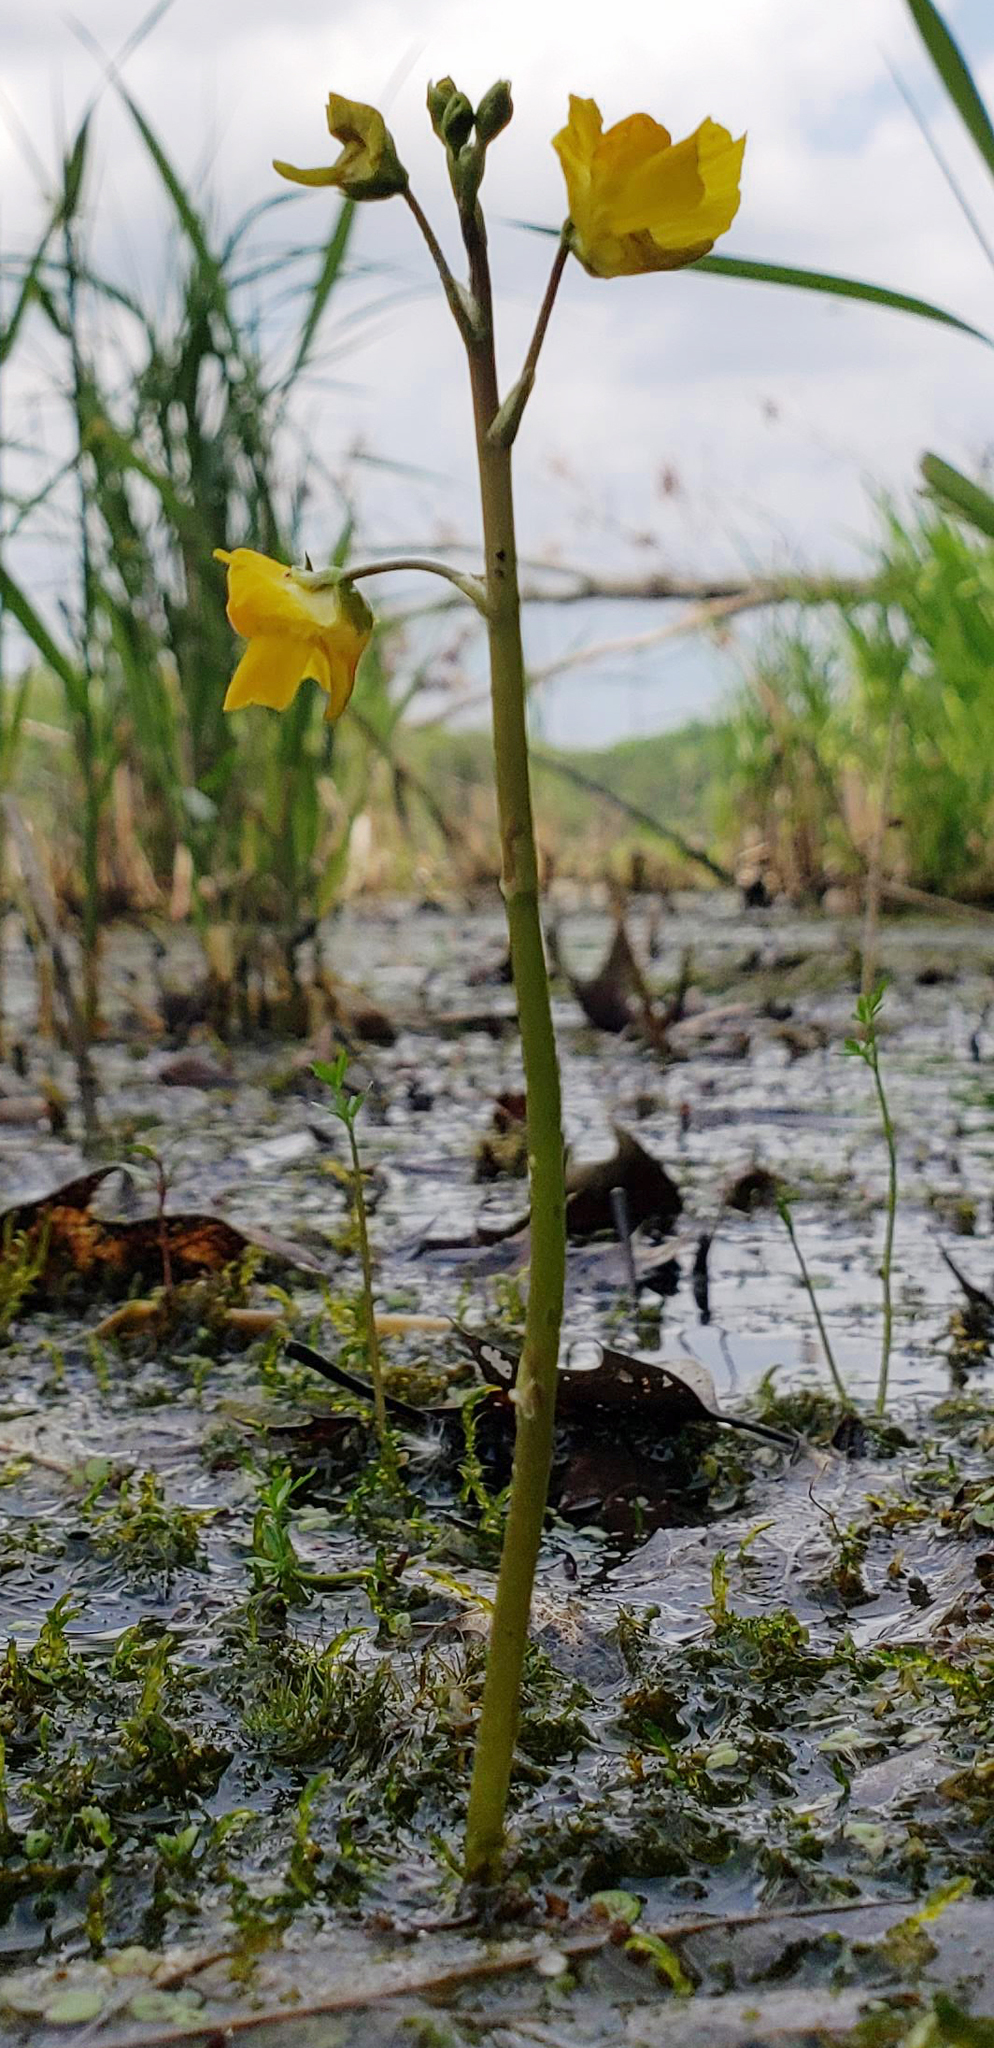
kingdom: Plantae
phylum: Tracheophyta
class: Magnoliopsida
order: Lamiales
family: Lentibulariaceae
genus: Utricularia
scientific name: Utricularia macrorhiza
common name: Common bladderwort
